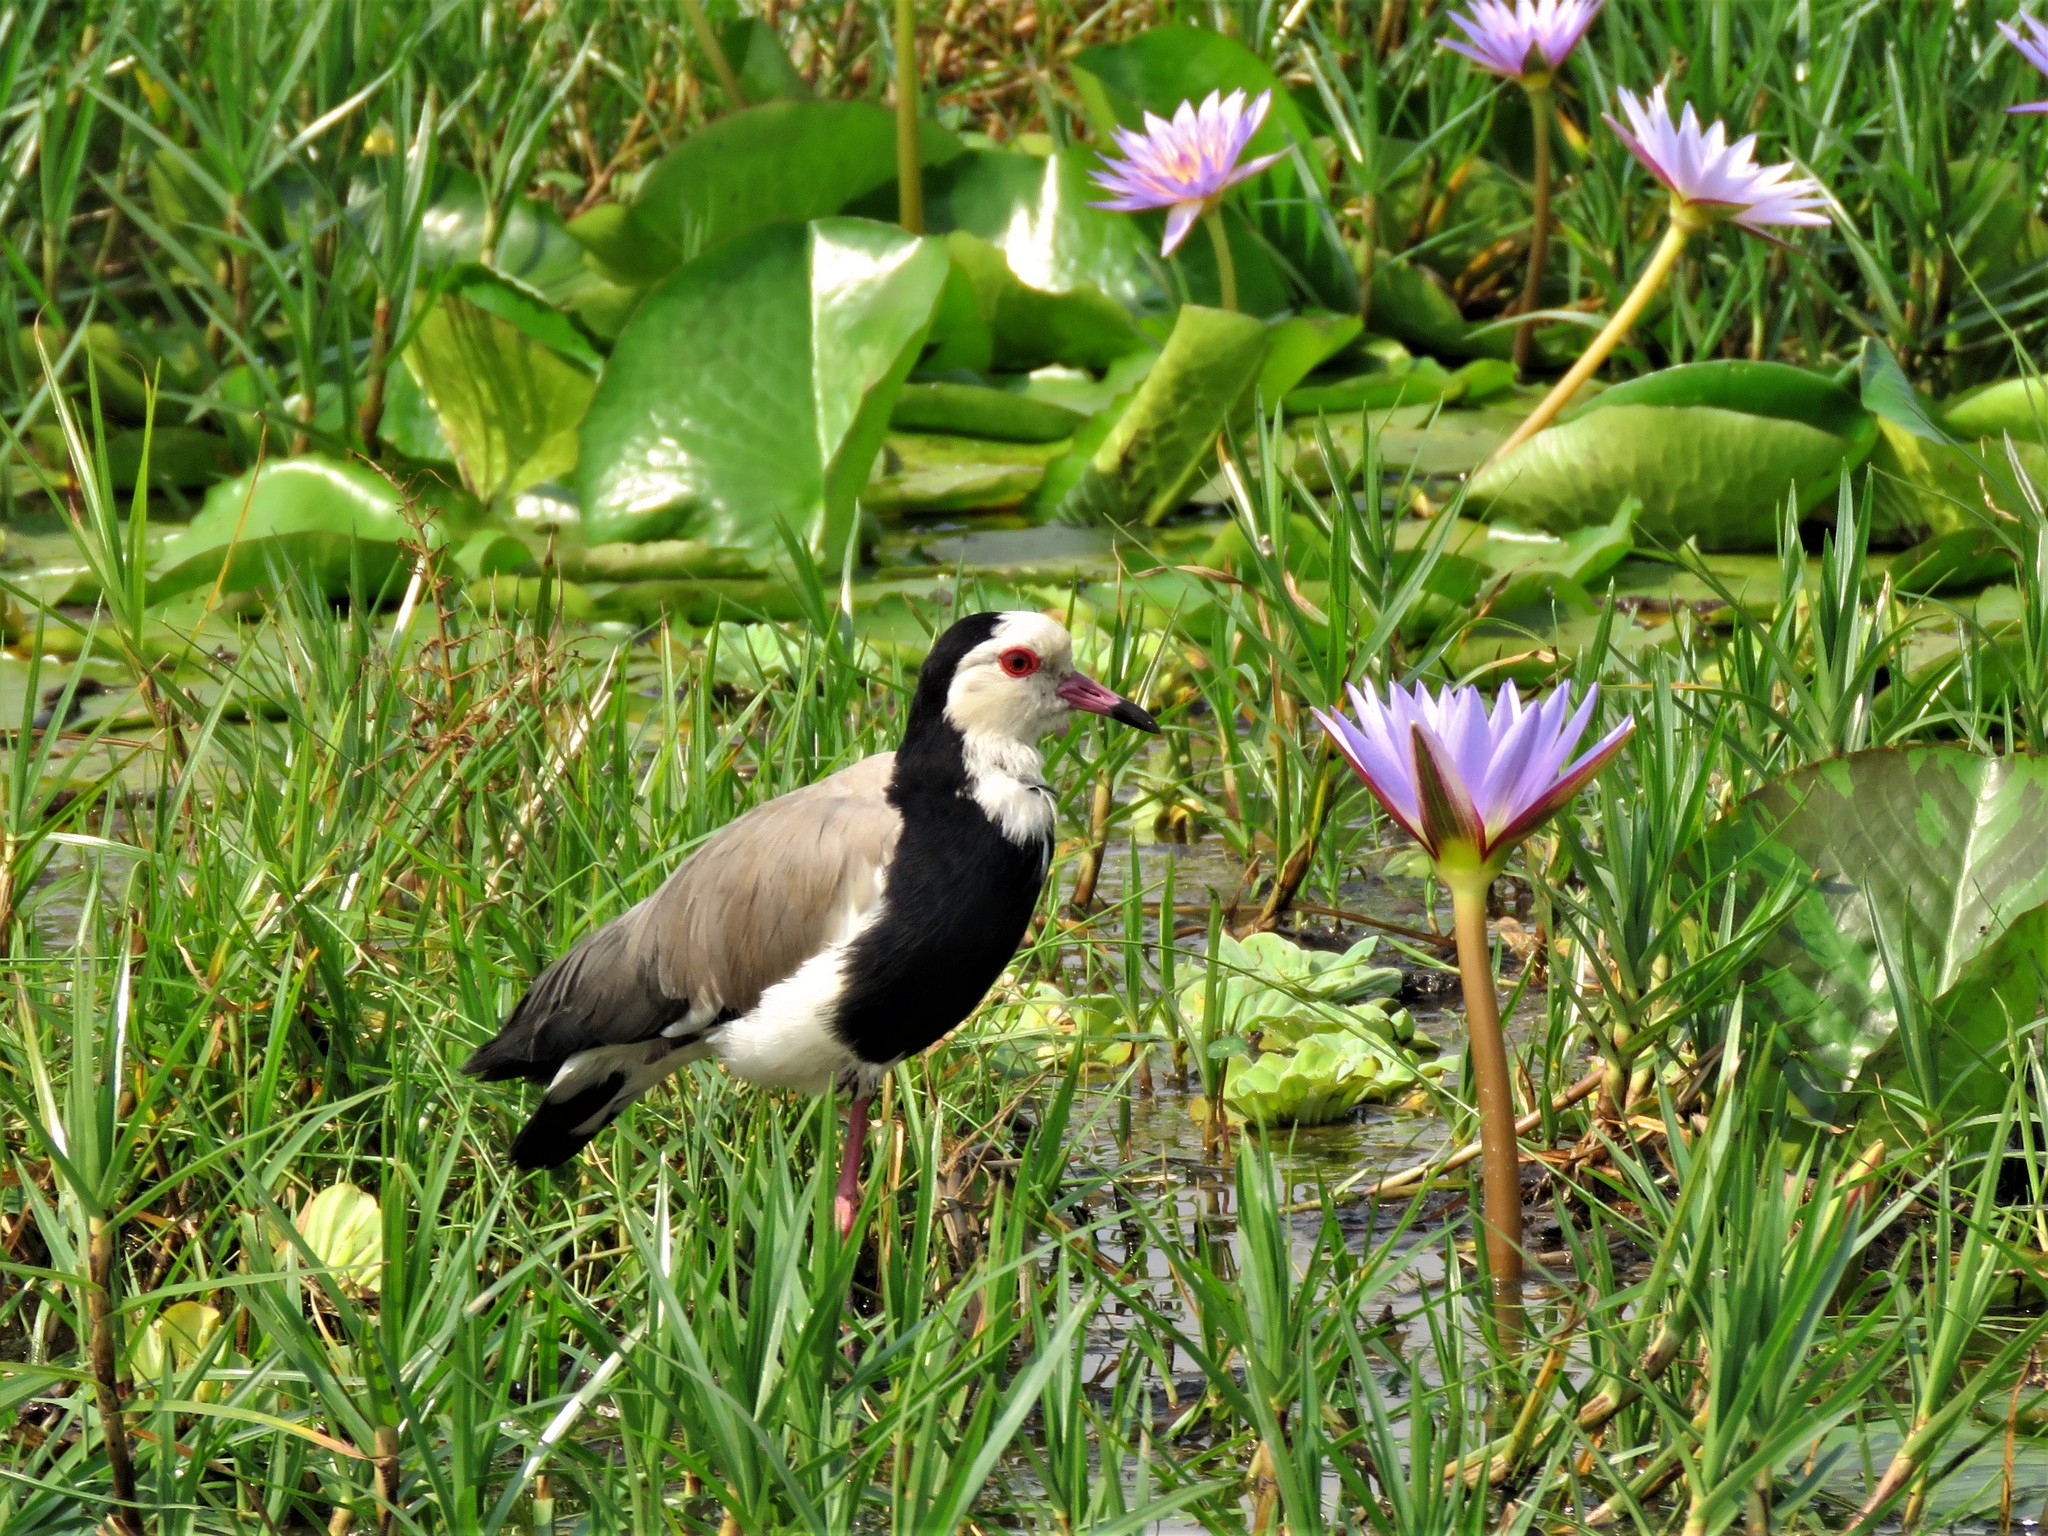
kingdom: Animalia
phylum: Chordata
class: Aves
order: Charadriiformes
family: Charadriidae
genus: Vanellus
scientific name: Vanellus crassirostris
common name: Long-toed lapwing
